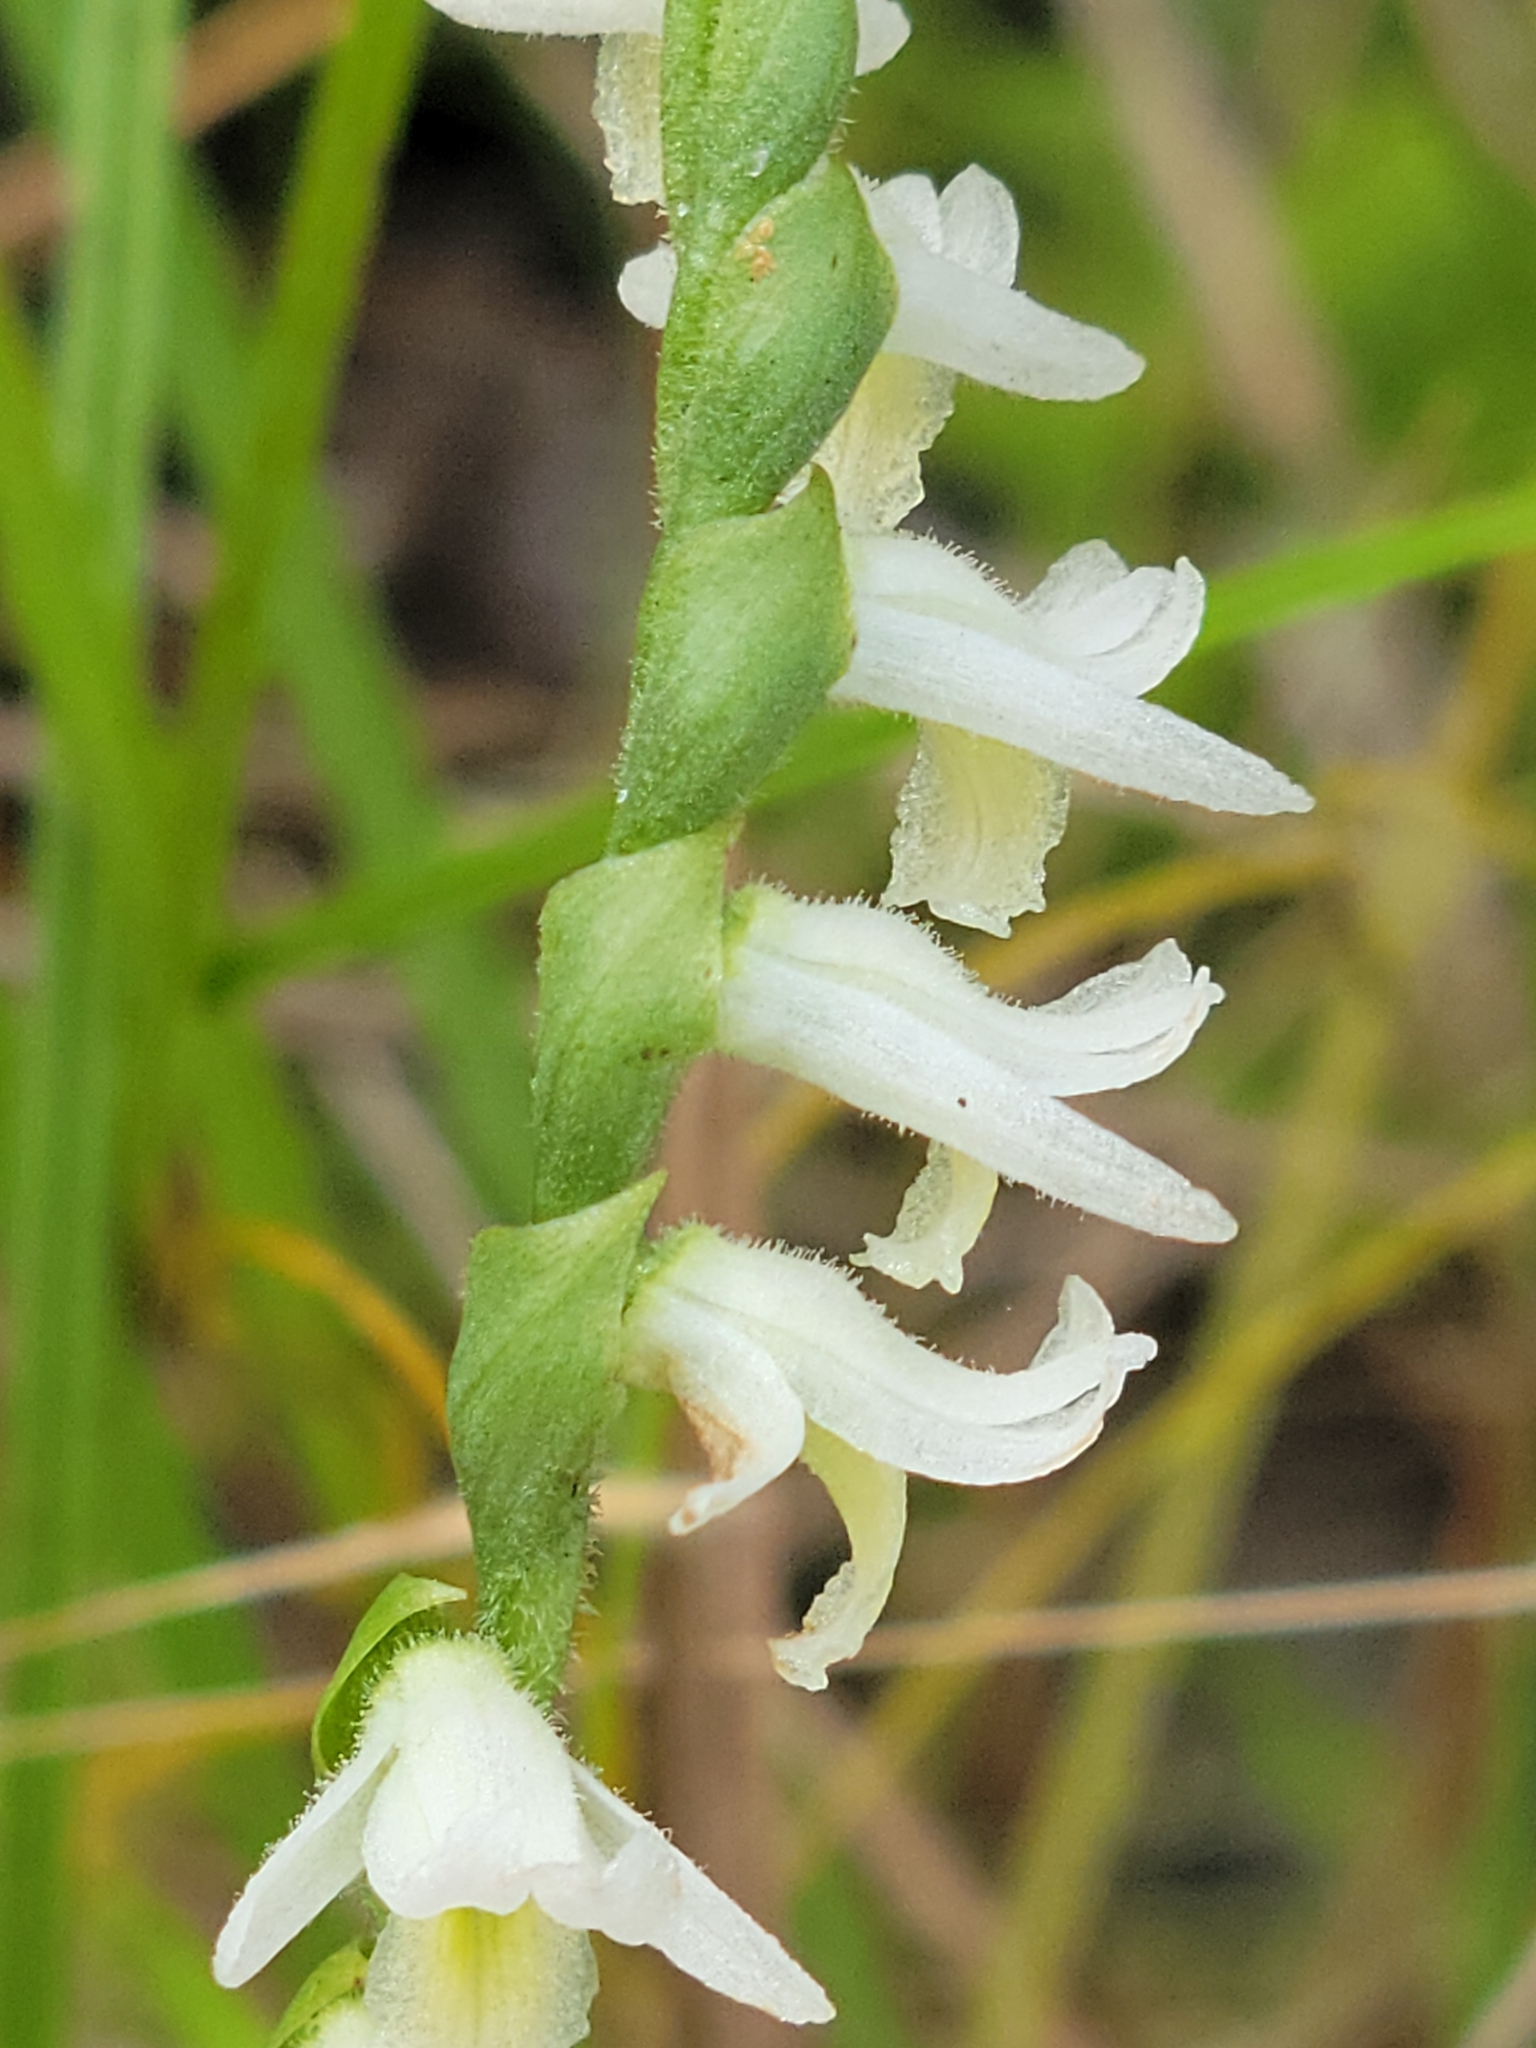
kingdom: Plantae
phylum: Tracheophyta
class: Liliopsida
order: Asparagales
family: Orchidaceae
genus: Spiranthes
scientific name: Spiranthes longilabris
